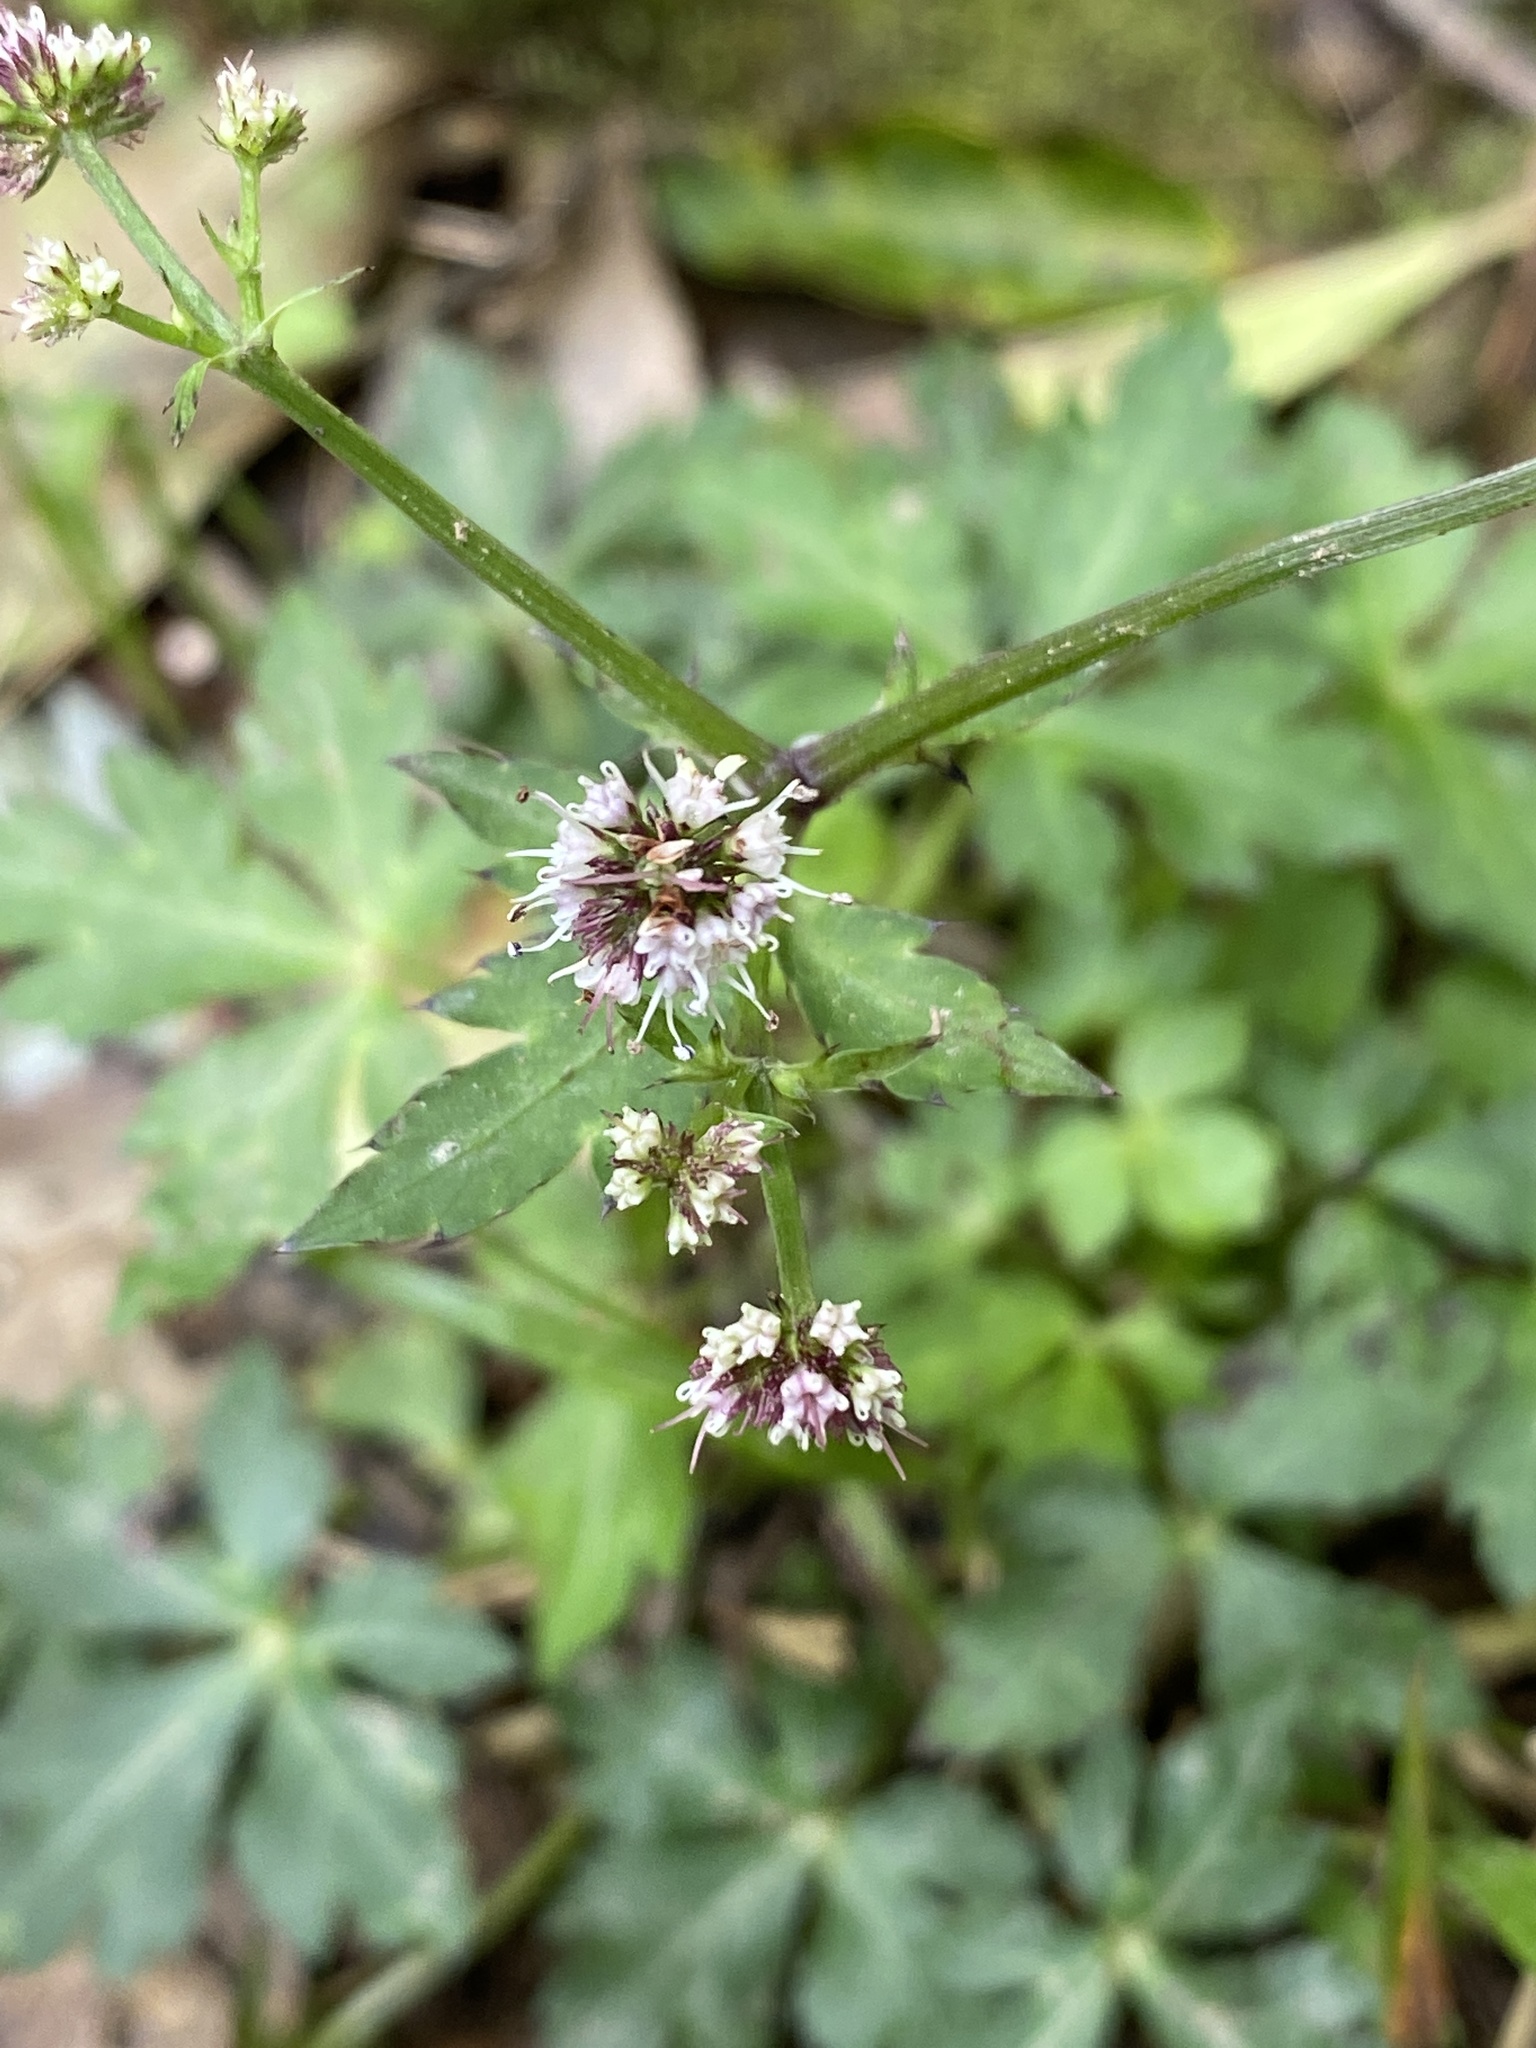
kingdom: Plantae
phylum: Tracheophyta
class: Magnoliopsida
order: Apiales
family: Apiaceae
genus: Sanicula
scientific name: Sanicula elata
